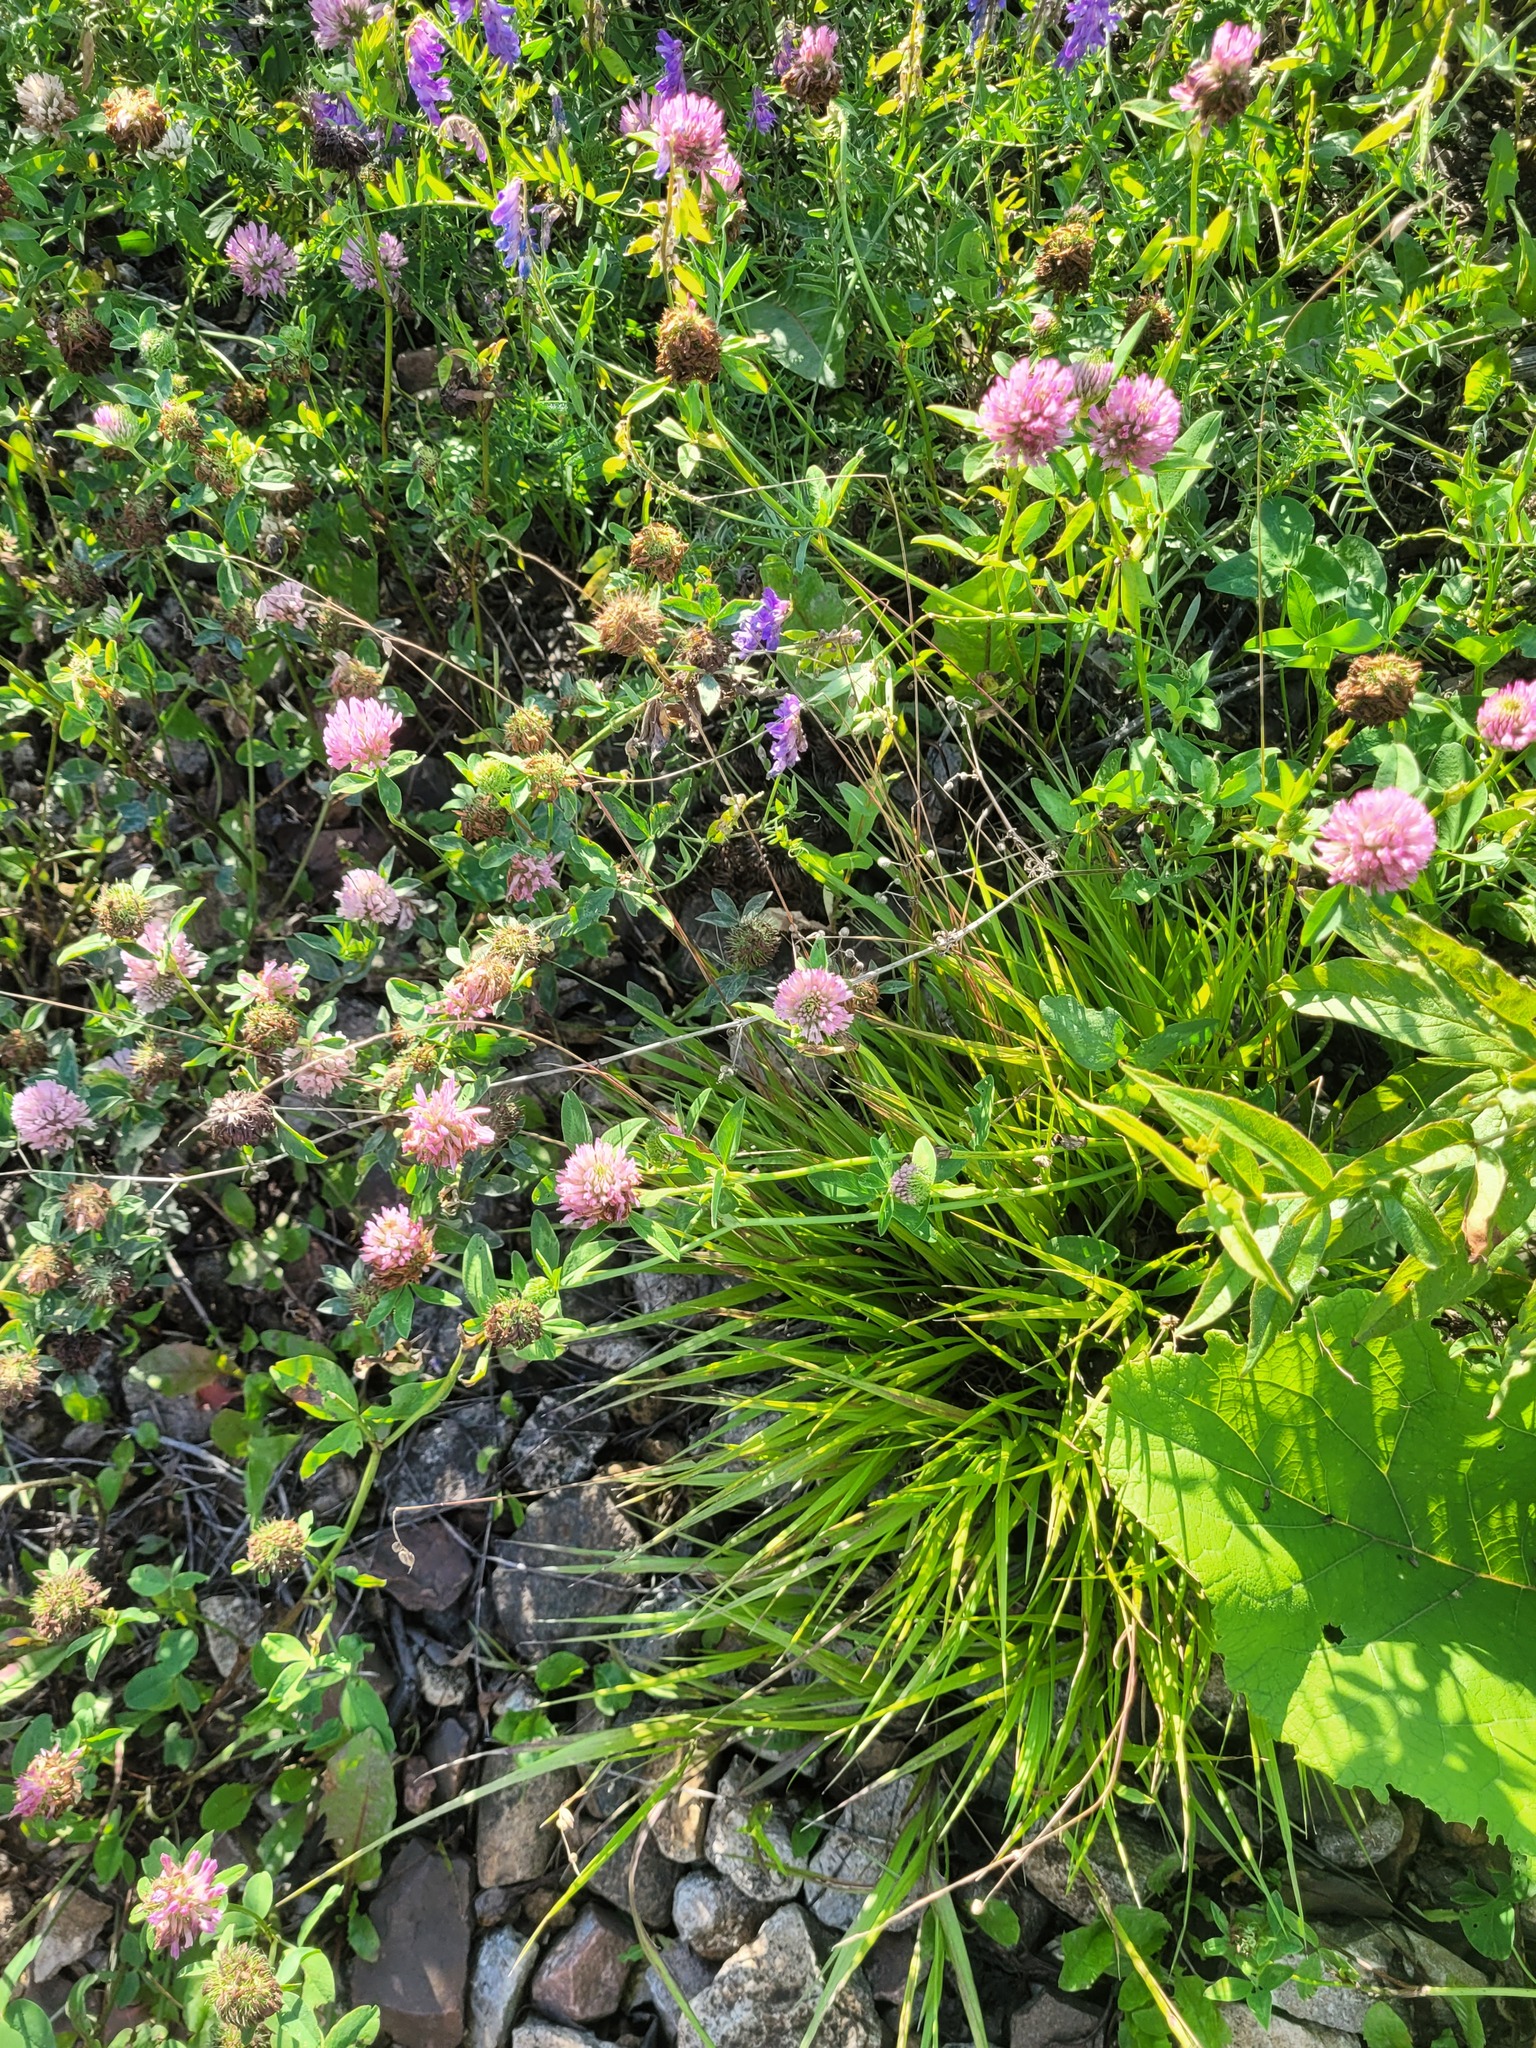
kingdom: Plantae
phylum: Tracheophyta
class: Liliopsida
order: Poales
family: Poaceae
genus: Melica
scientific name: Melica nutans
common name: Mountain melick
